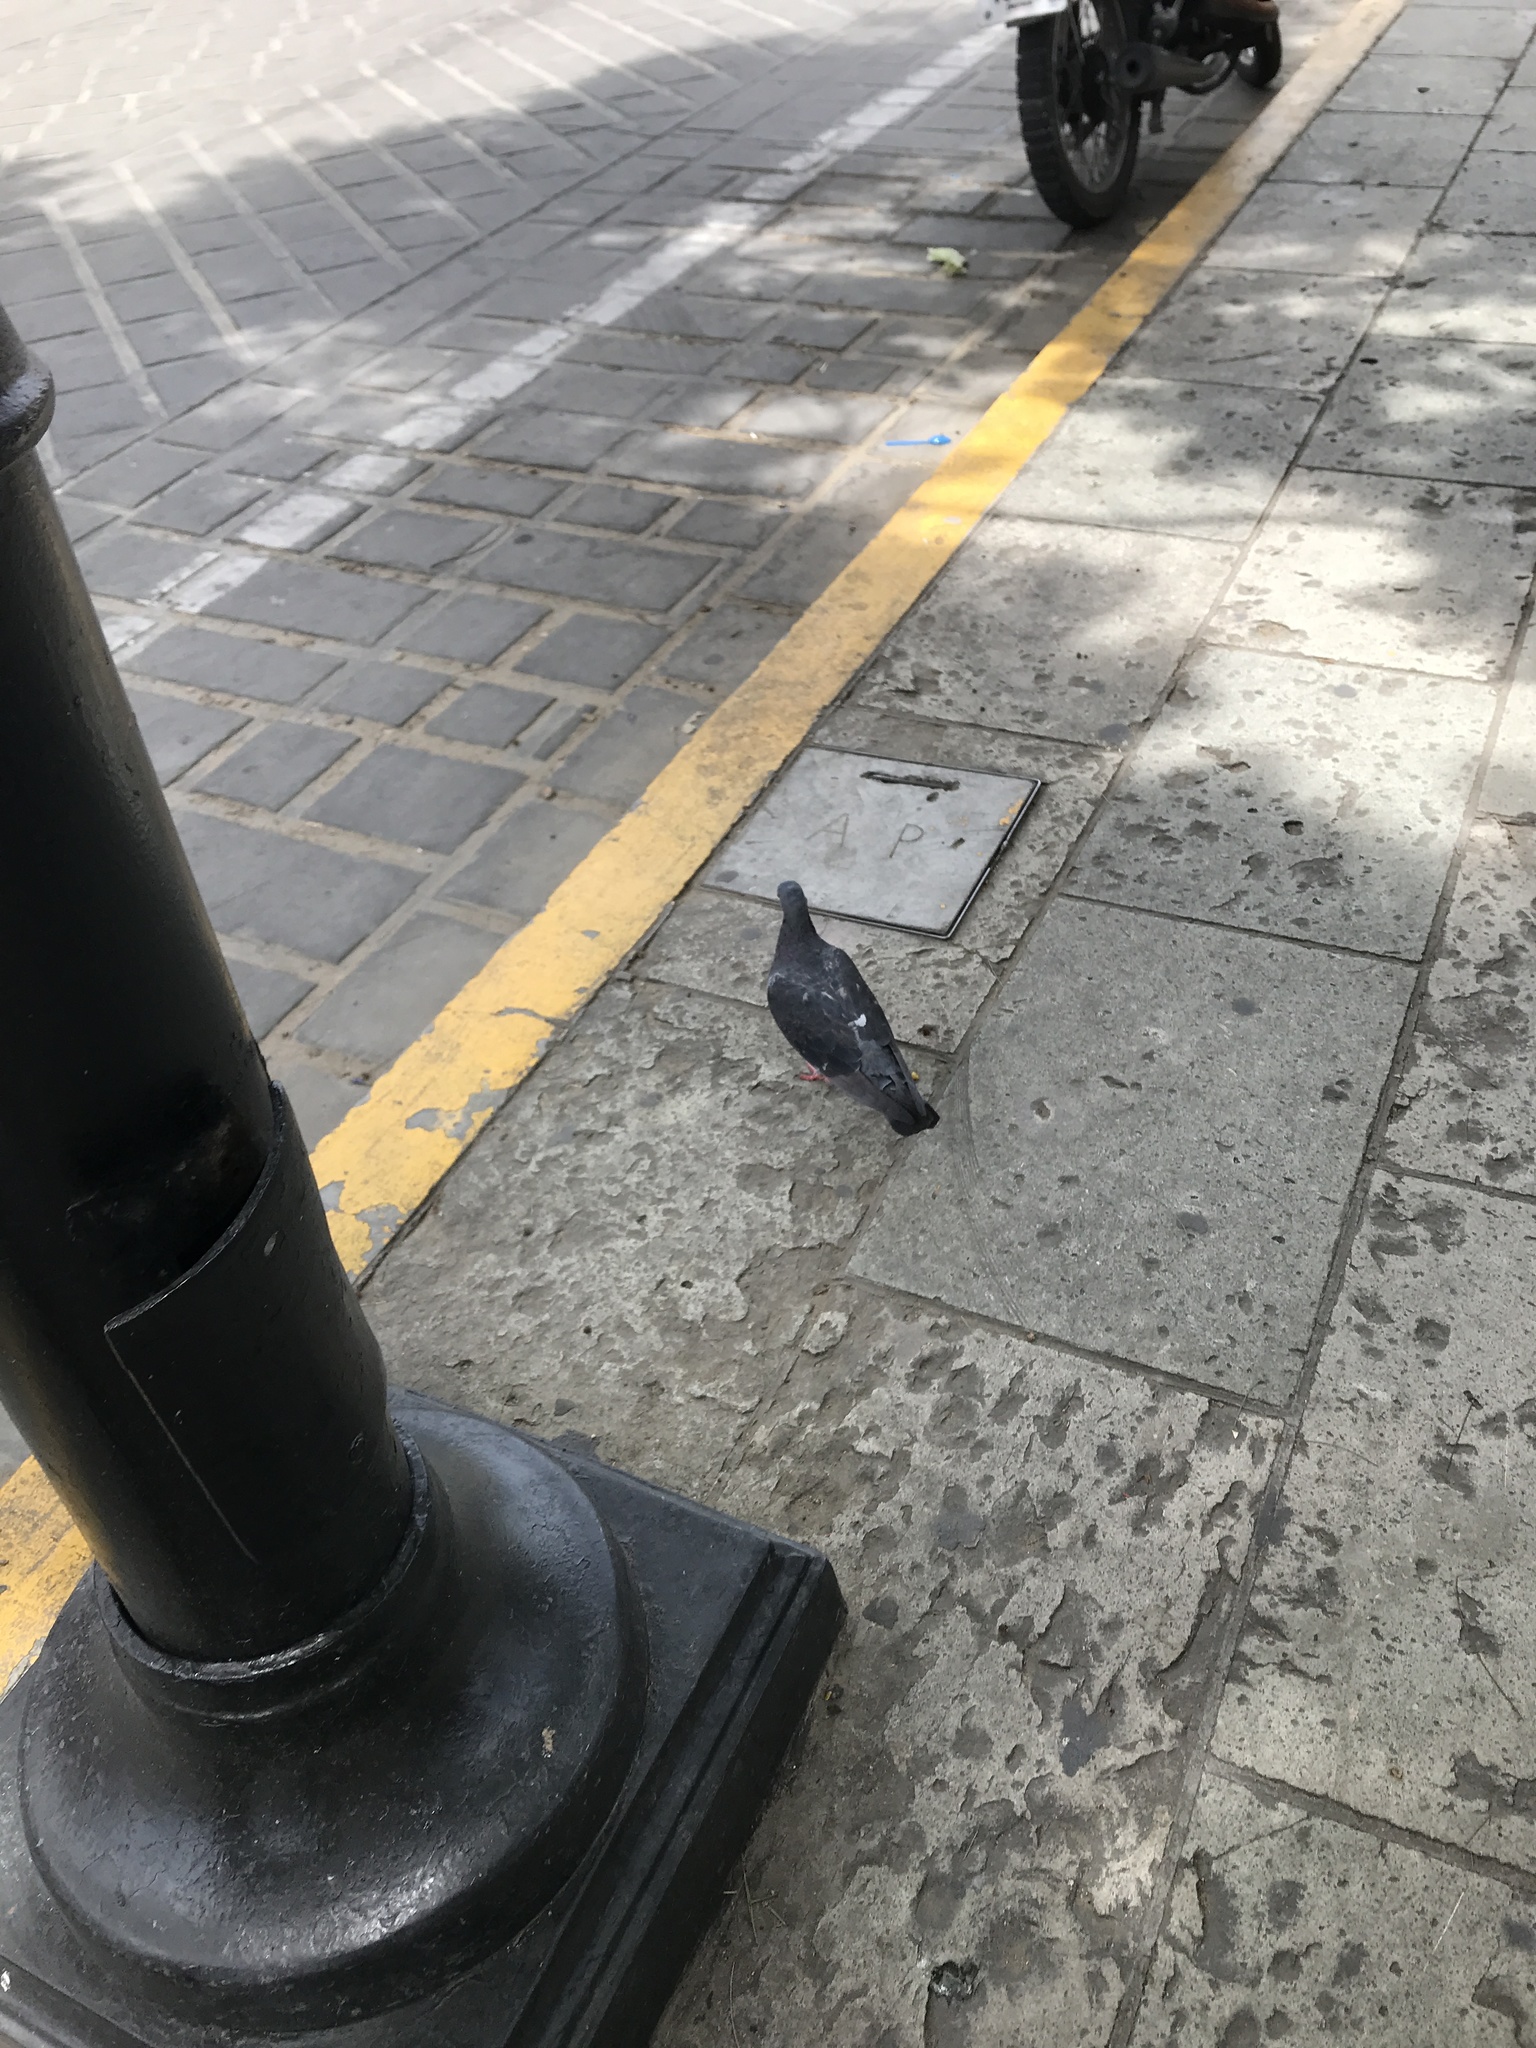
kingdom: Animalia
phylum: Chordata
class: Aves
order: Columbiformes
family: Columbidae
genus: Columba
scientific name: Columba livia
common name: Rock pigeon
